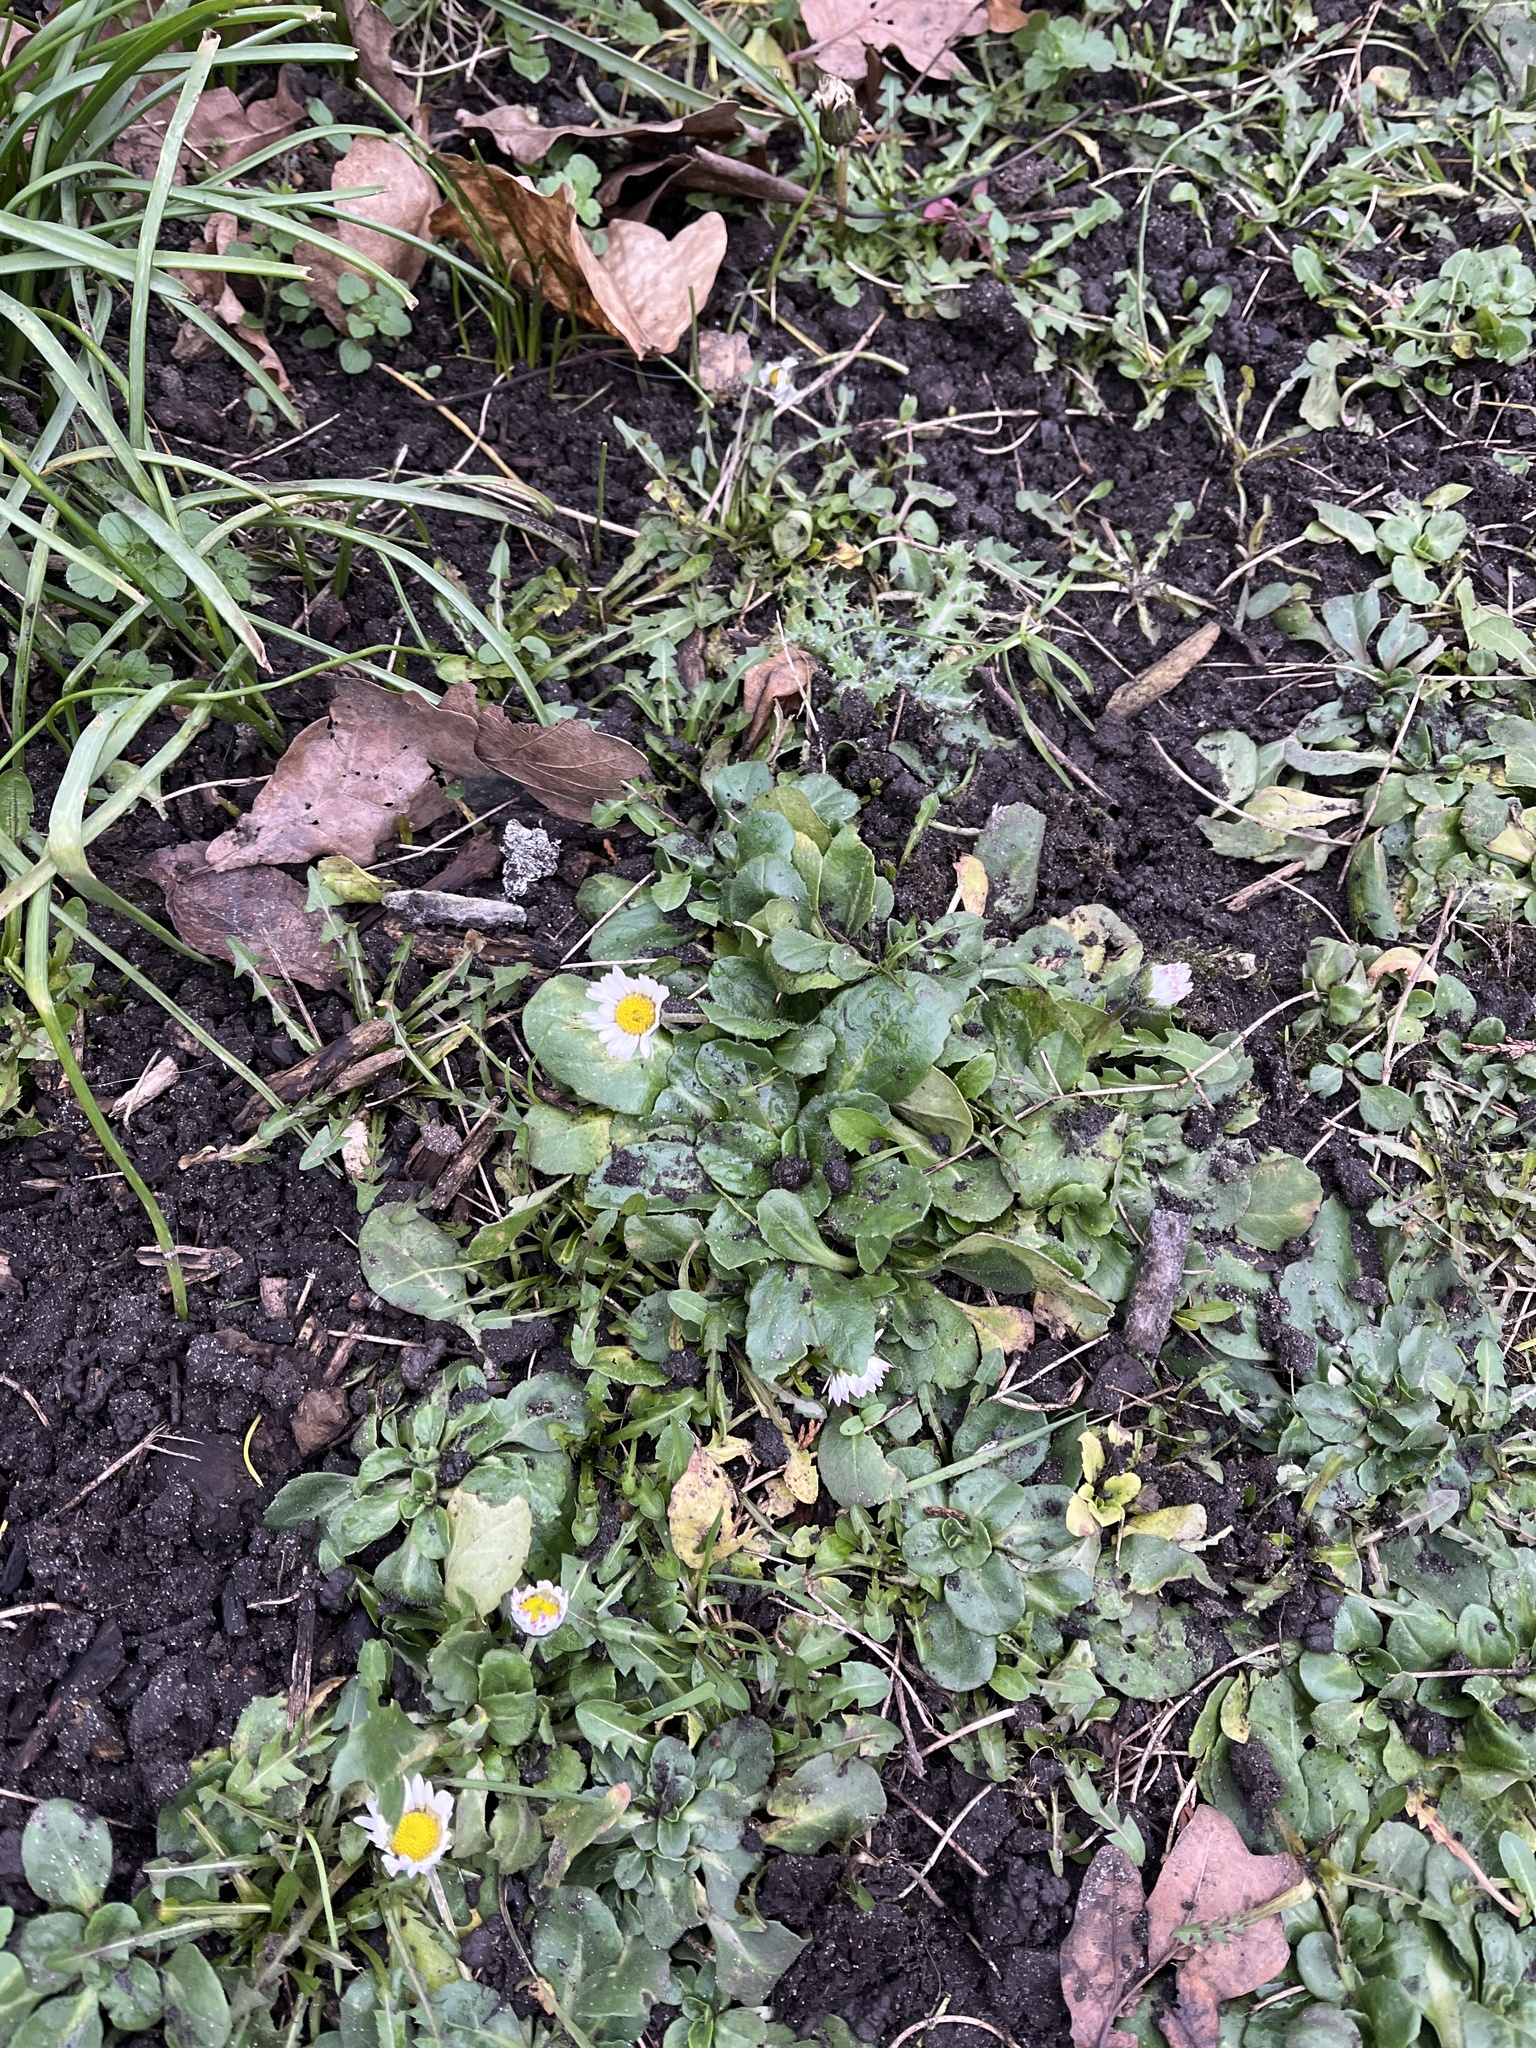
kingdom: Plantae
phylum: Tracheophyta
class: Magnoliopsida
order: Asterales
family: Asteraceae
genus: Bellis
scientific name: Bellis perennis
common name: Lawndaisy
